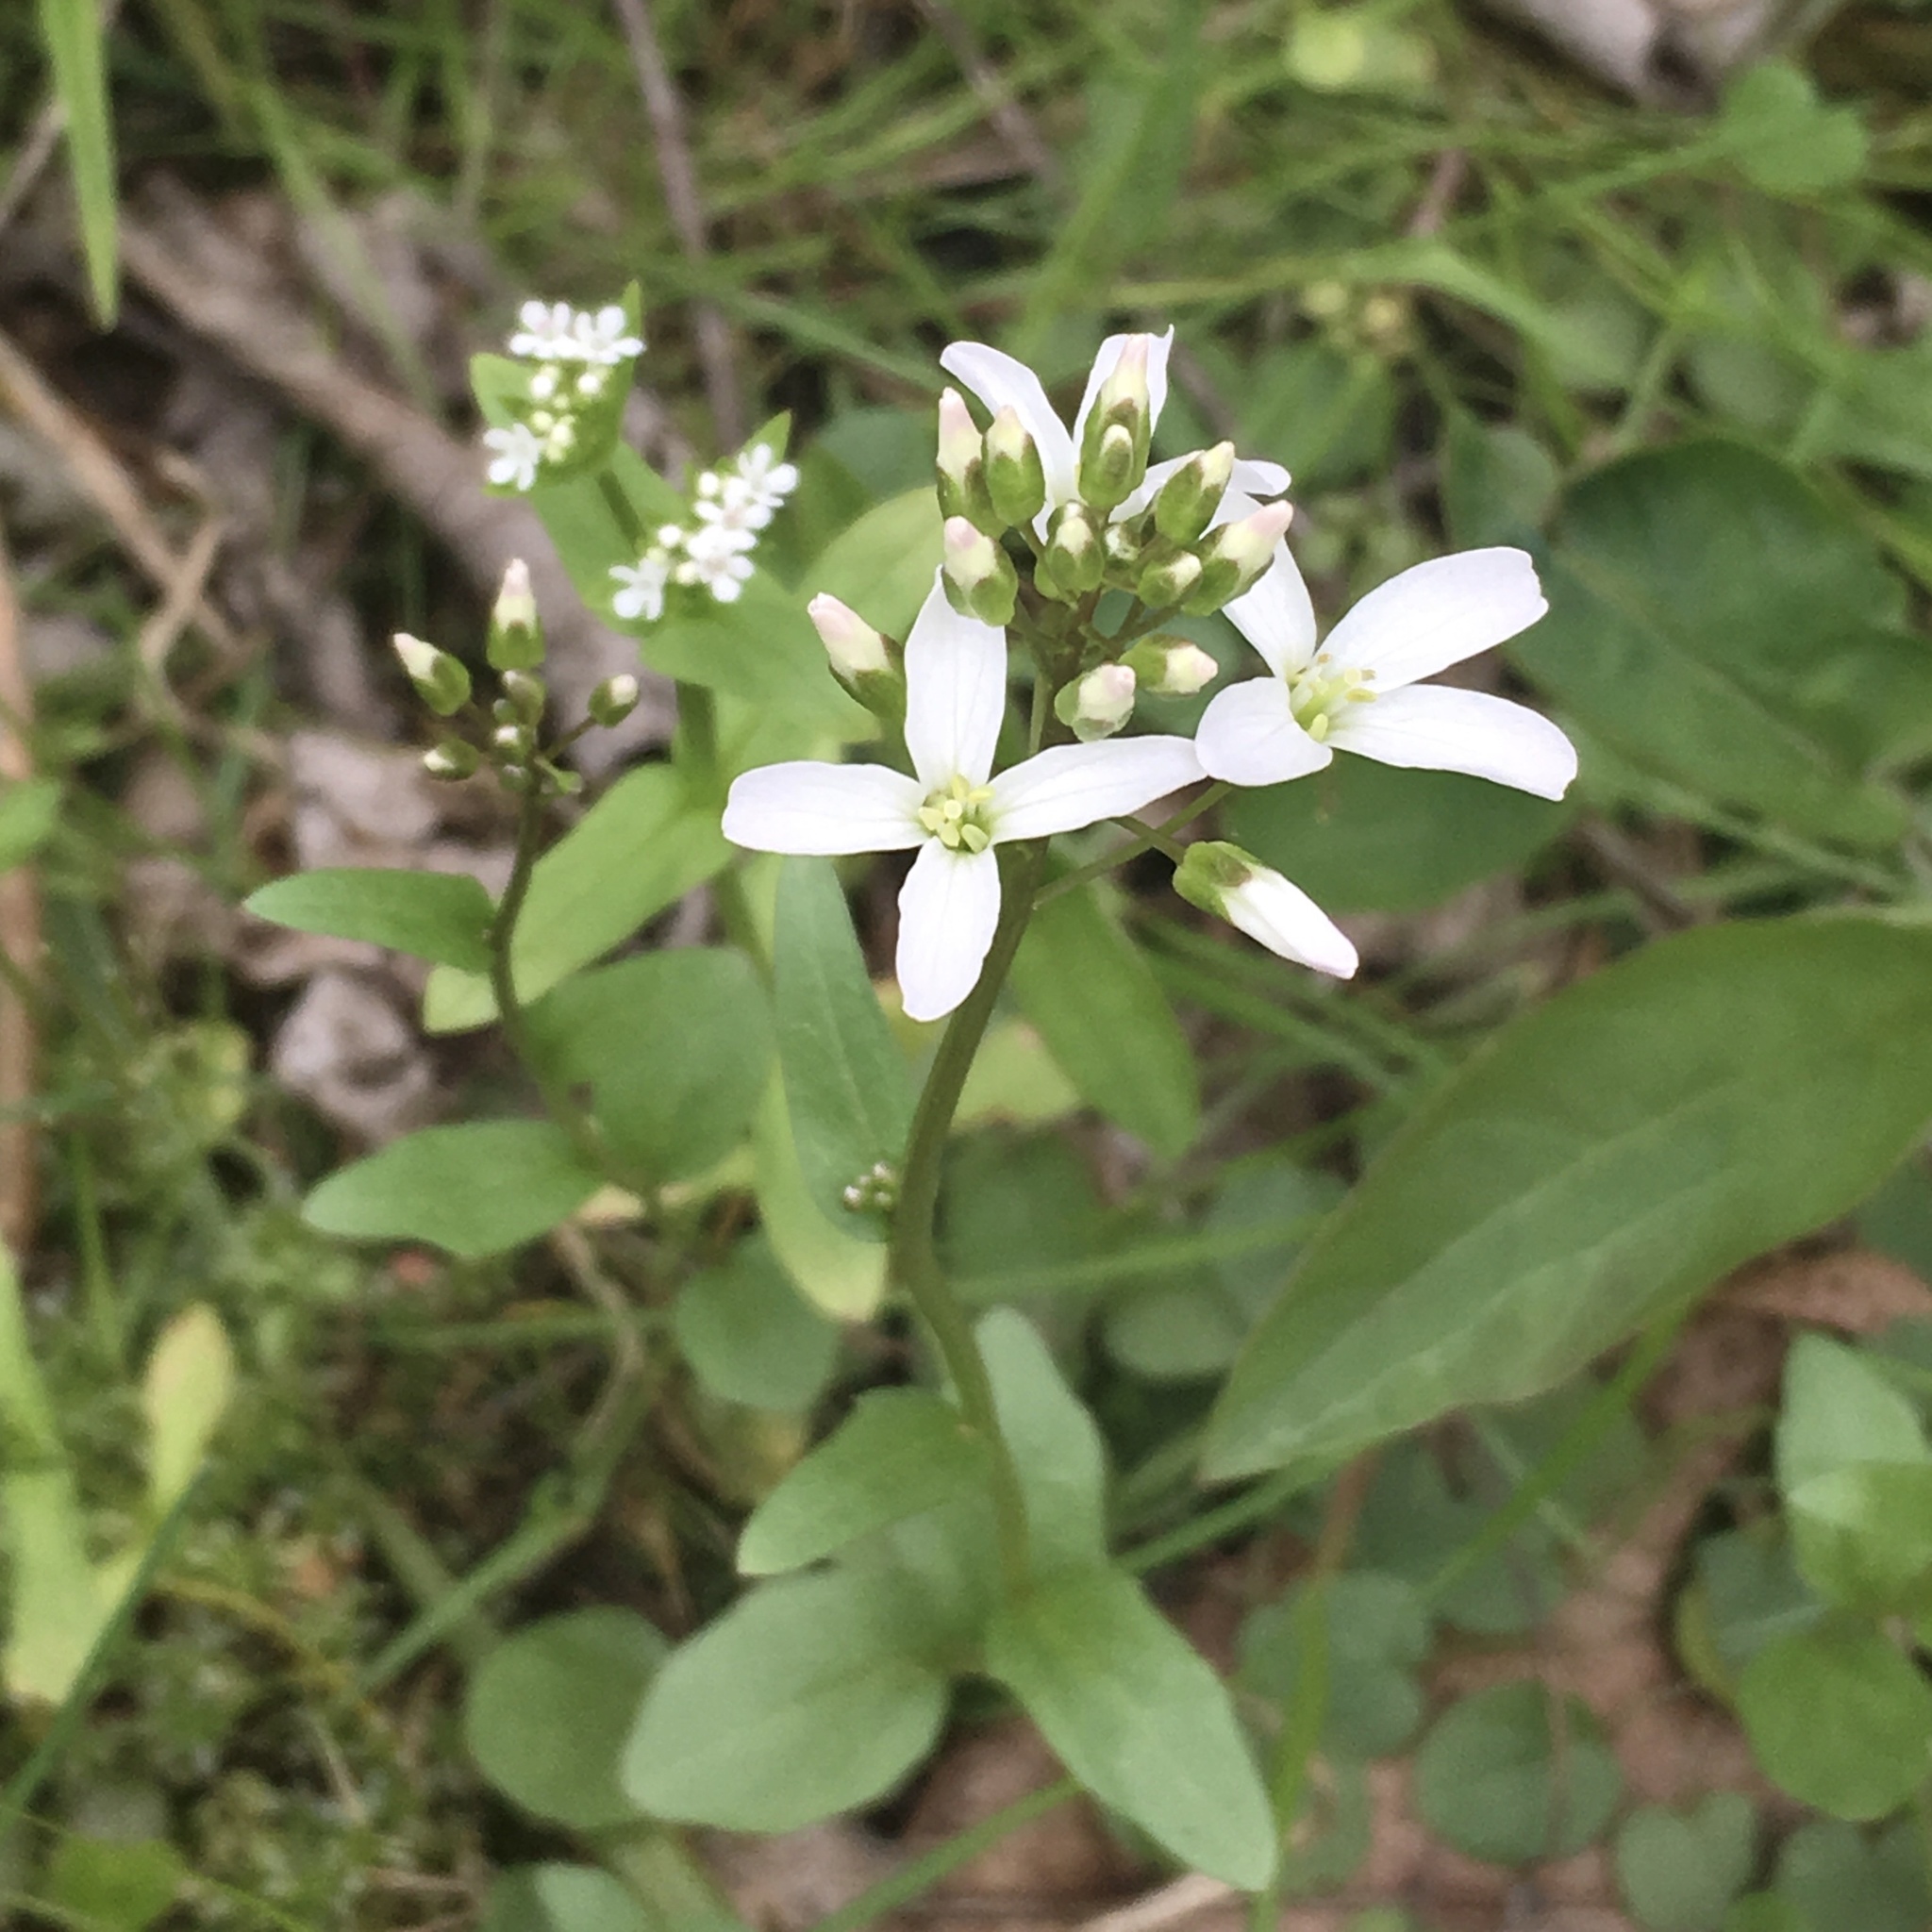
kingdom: Plantae
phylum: Tracheophyta
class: Magnoliopsida
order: Brassicales
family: Brassicaceae
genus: Cardamine
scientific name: Cardamine bulbosa
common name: Spring cress
